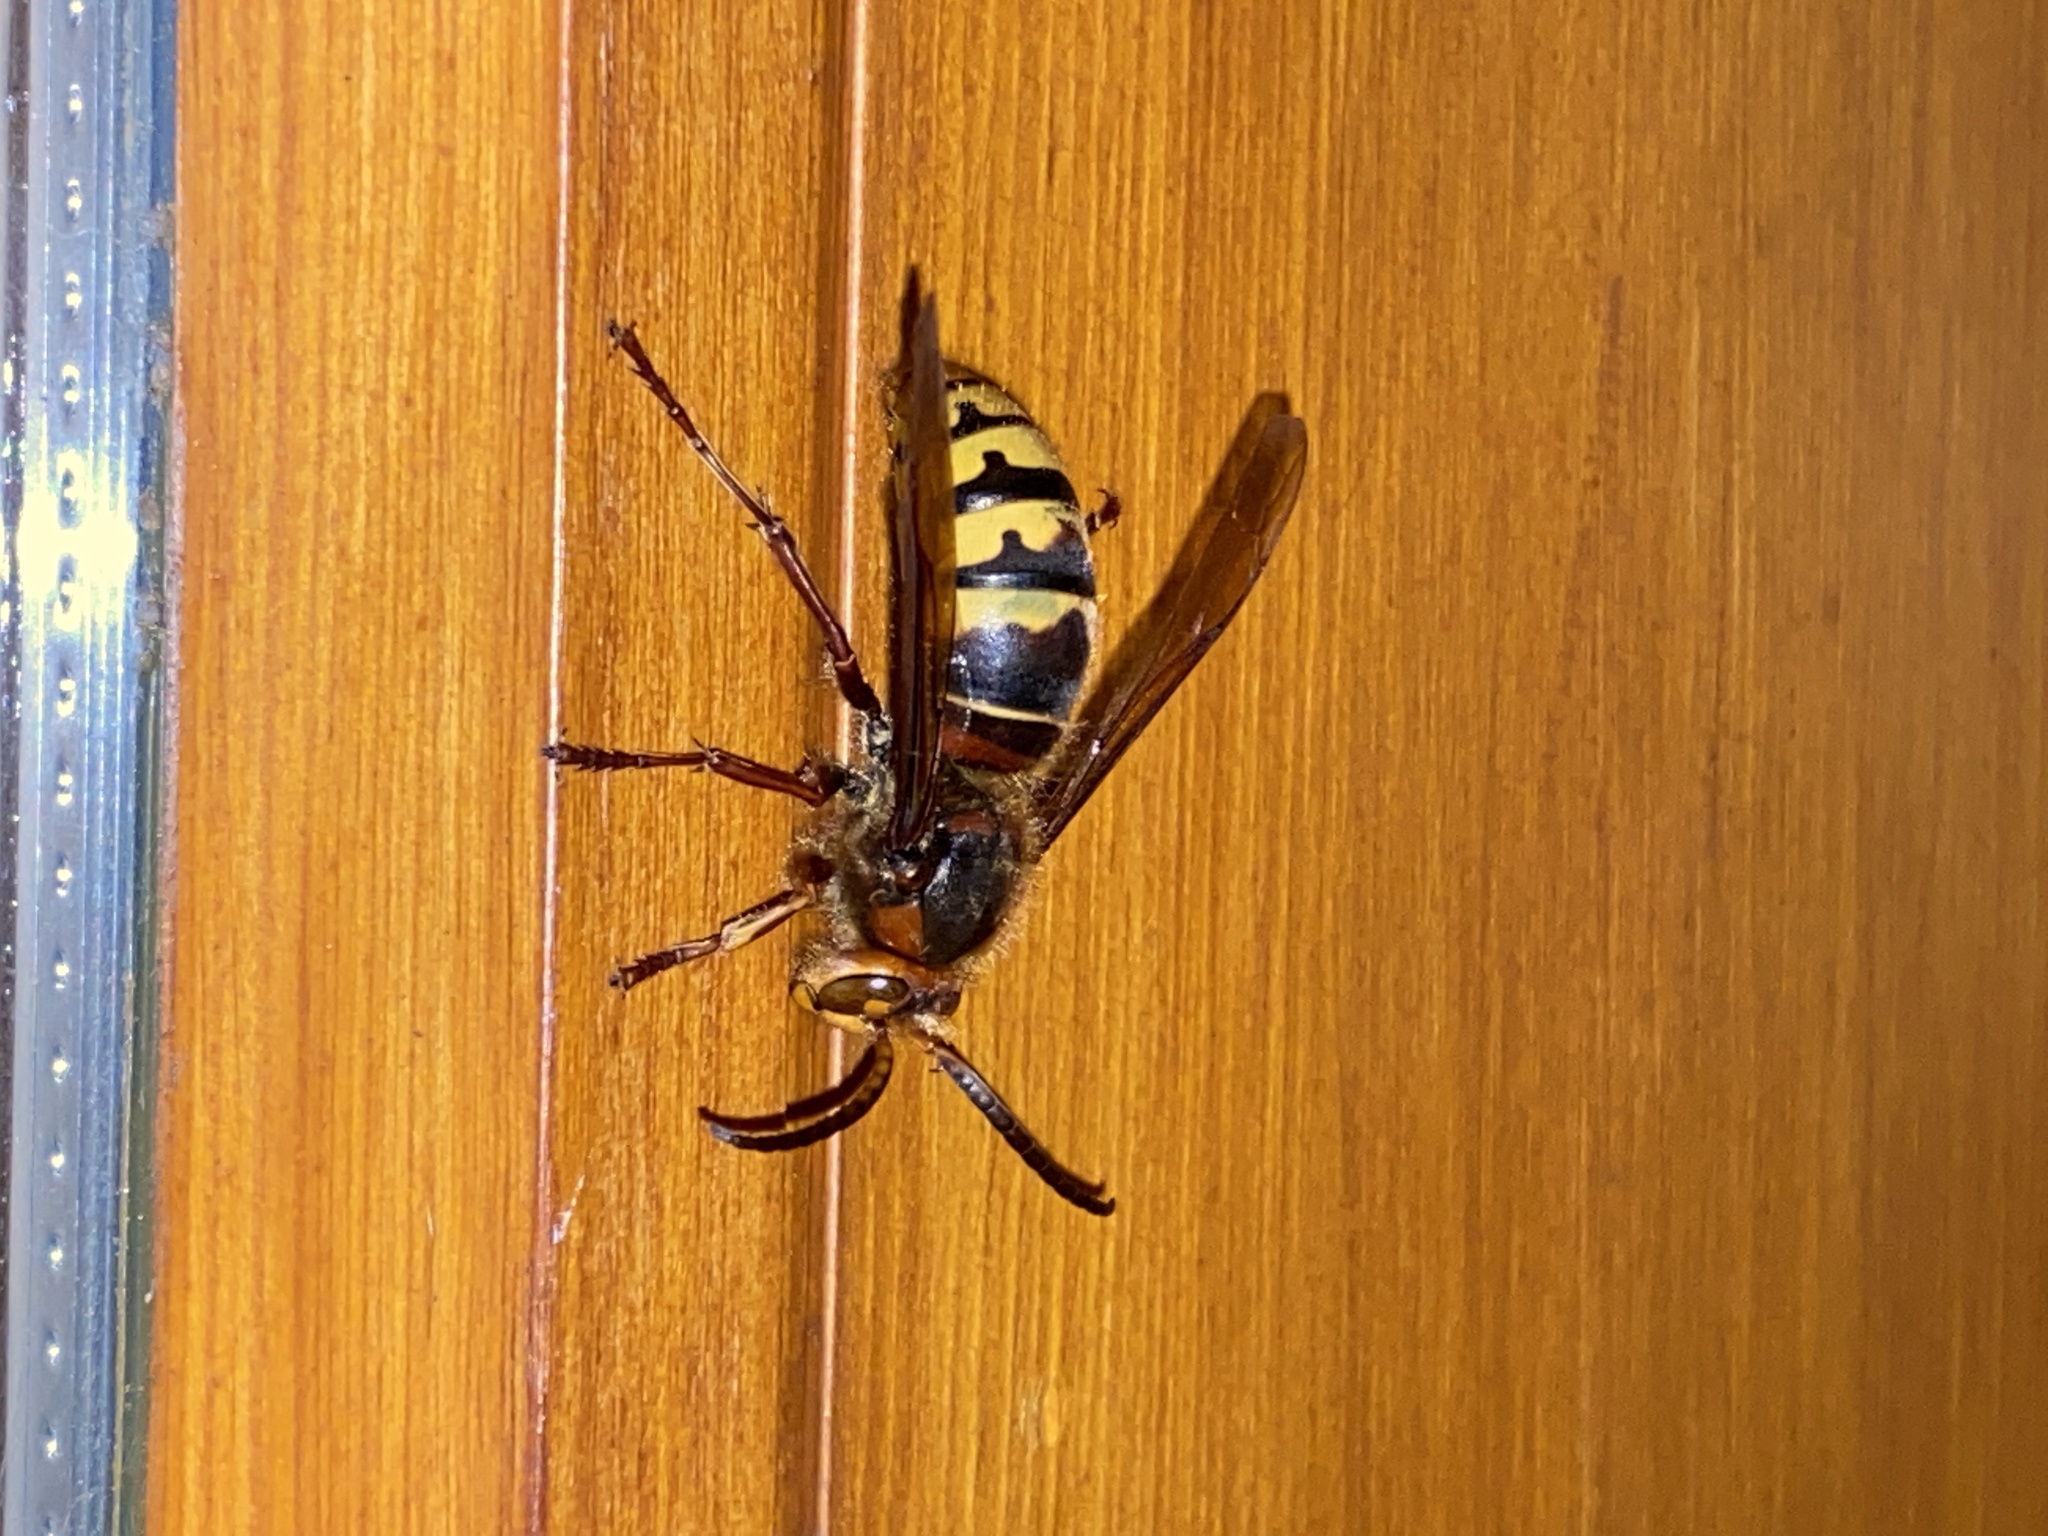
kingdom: Animalia
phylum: Arthropoda
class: Insecta
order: Hymenoptera
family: Vespidae
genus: Vespa
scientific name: Vespa crabro
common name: Hornet
